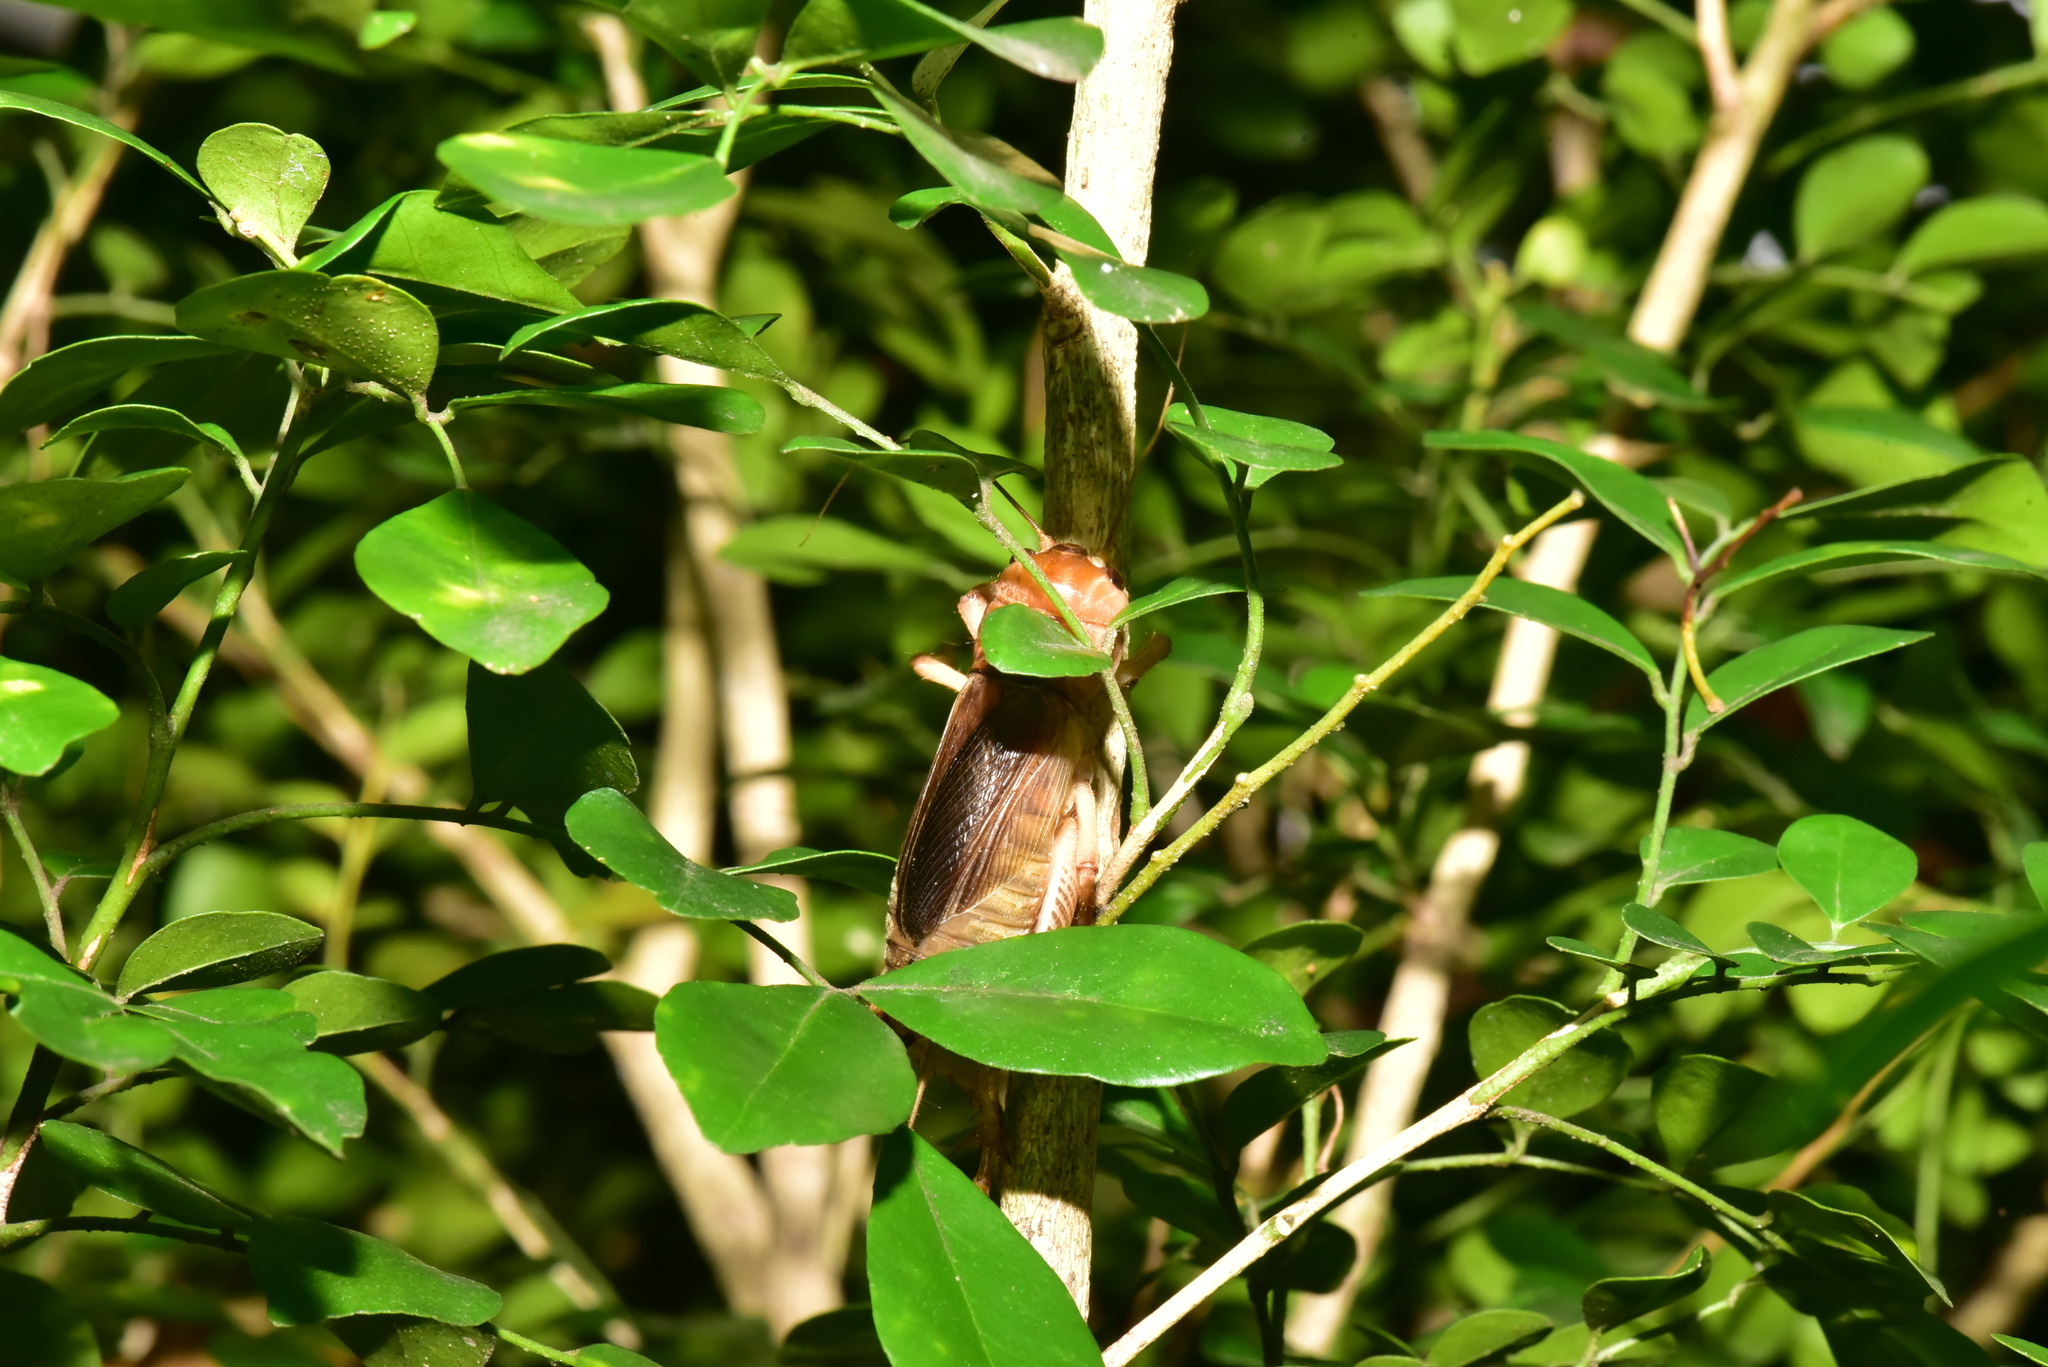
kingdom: Animalia
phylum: Arthropoda
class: Insecta
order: Orthoptera
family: Gryllidae
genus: Tarbinskiellus
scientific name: Tarbinskiellus portentosus
